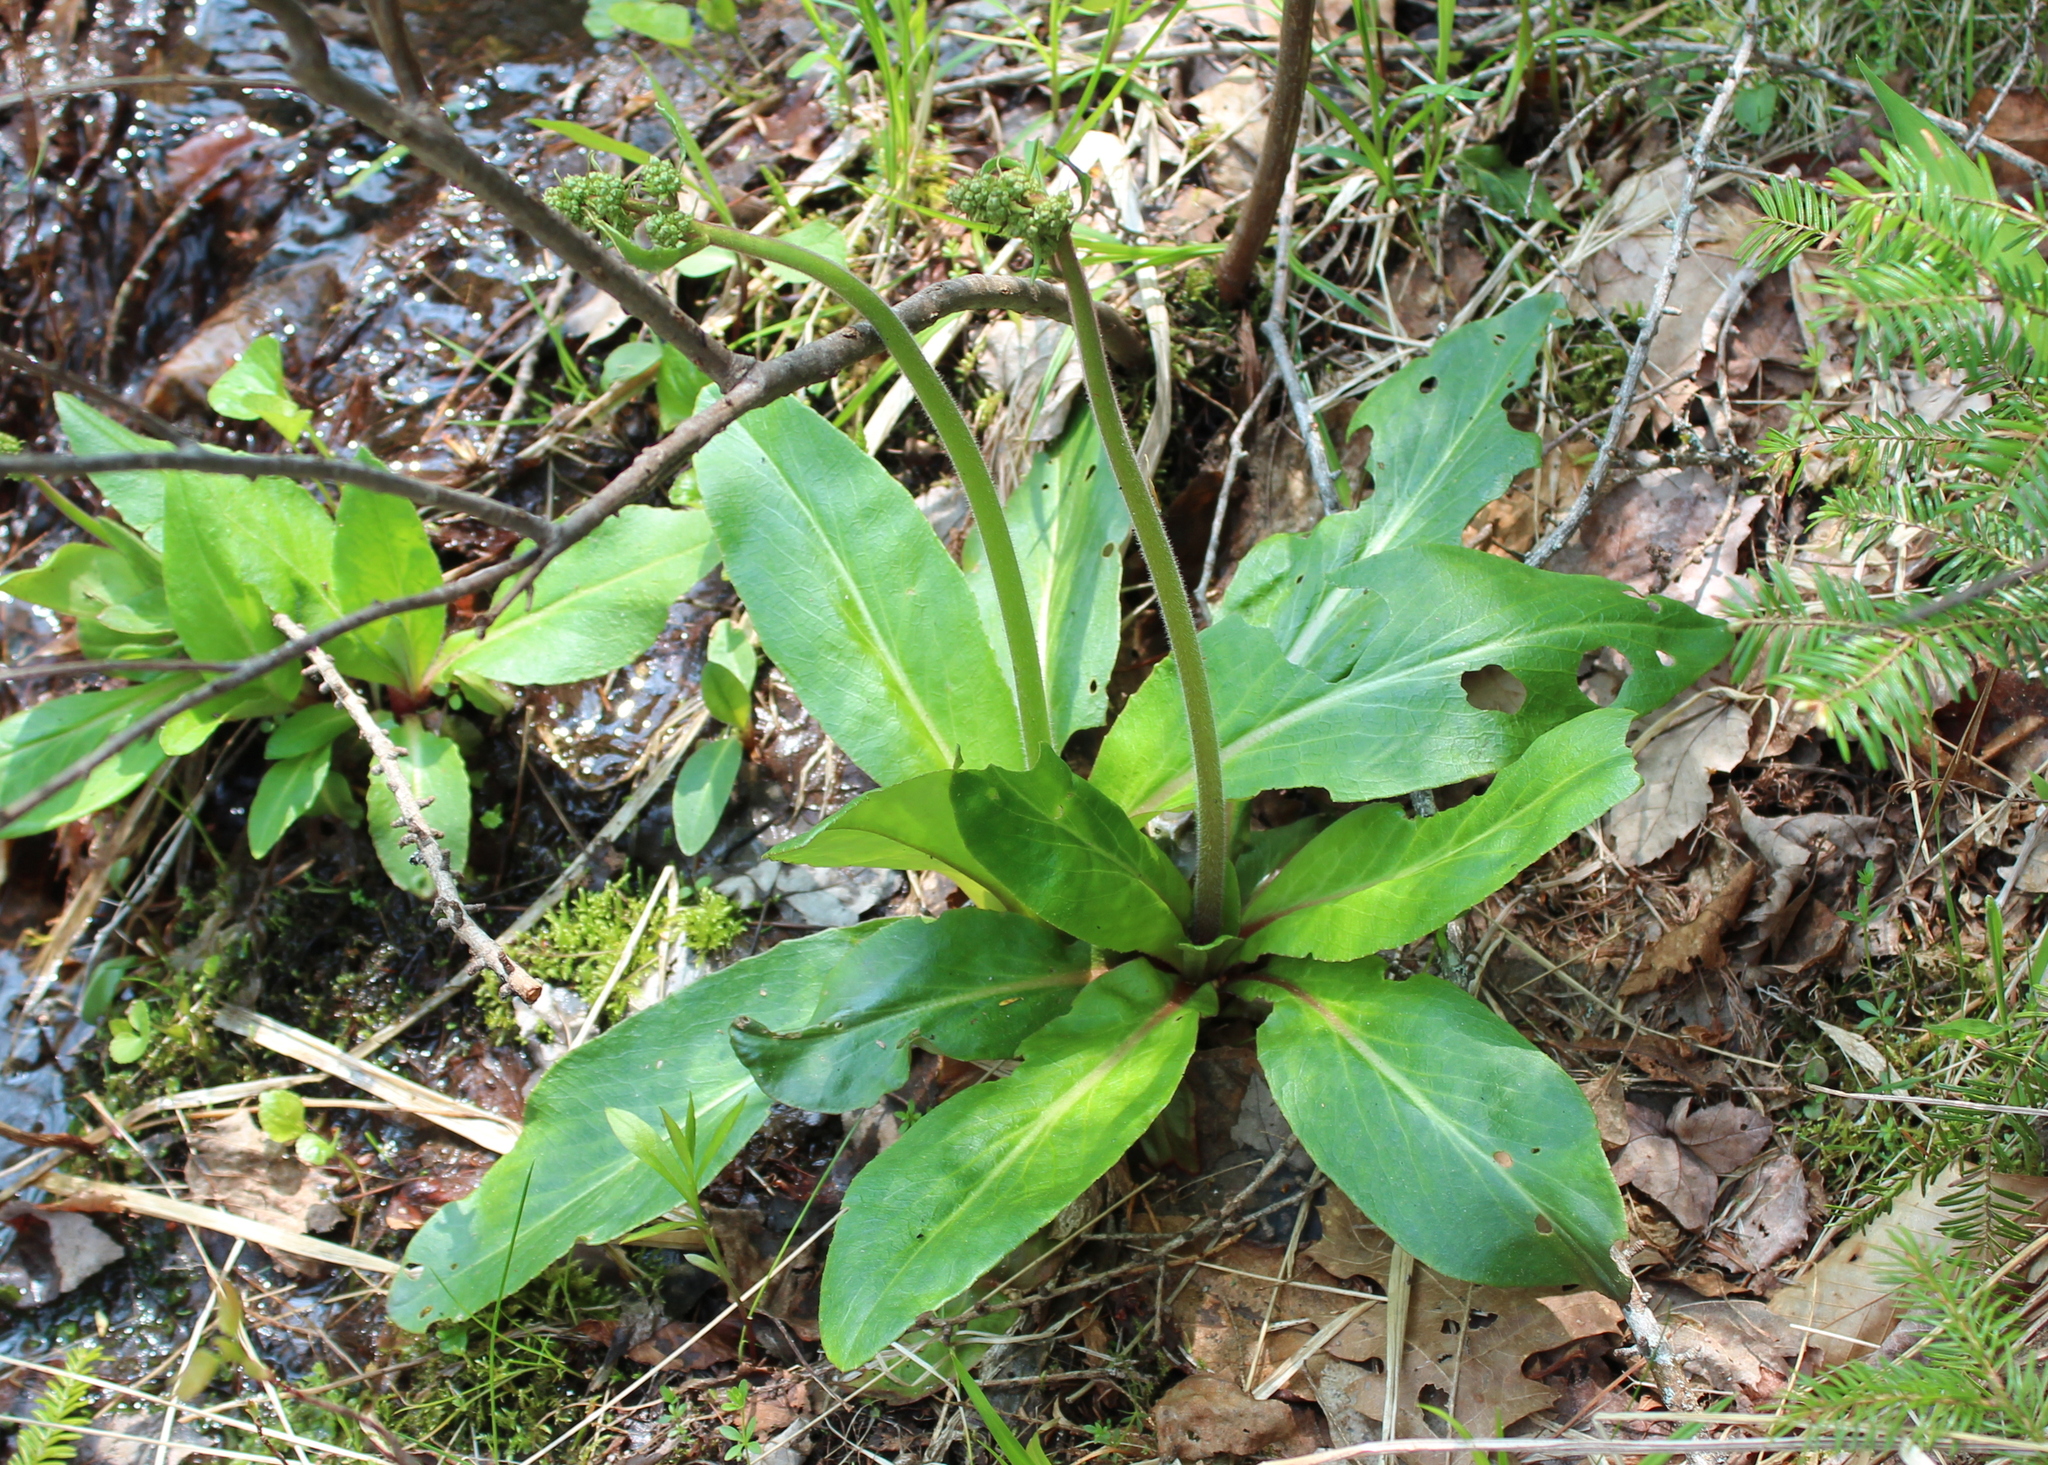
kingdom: Plantae
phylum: Tracheophyta
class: Magnoliopsida
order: Saxifragales
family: Saxifragaceae
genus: Micranthes
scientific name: Micranthes pensylvanica
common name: Marsh saxifrage
